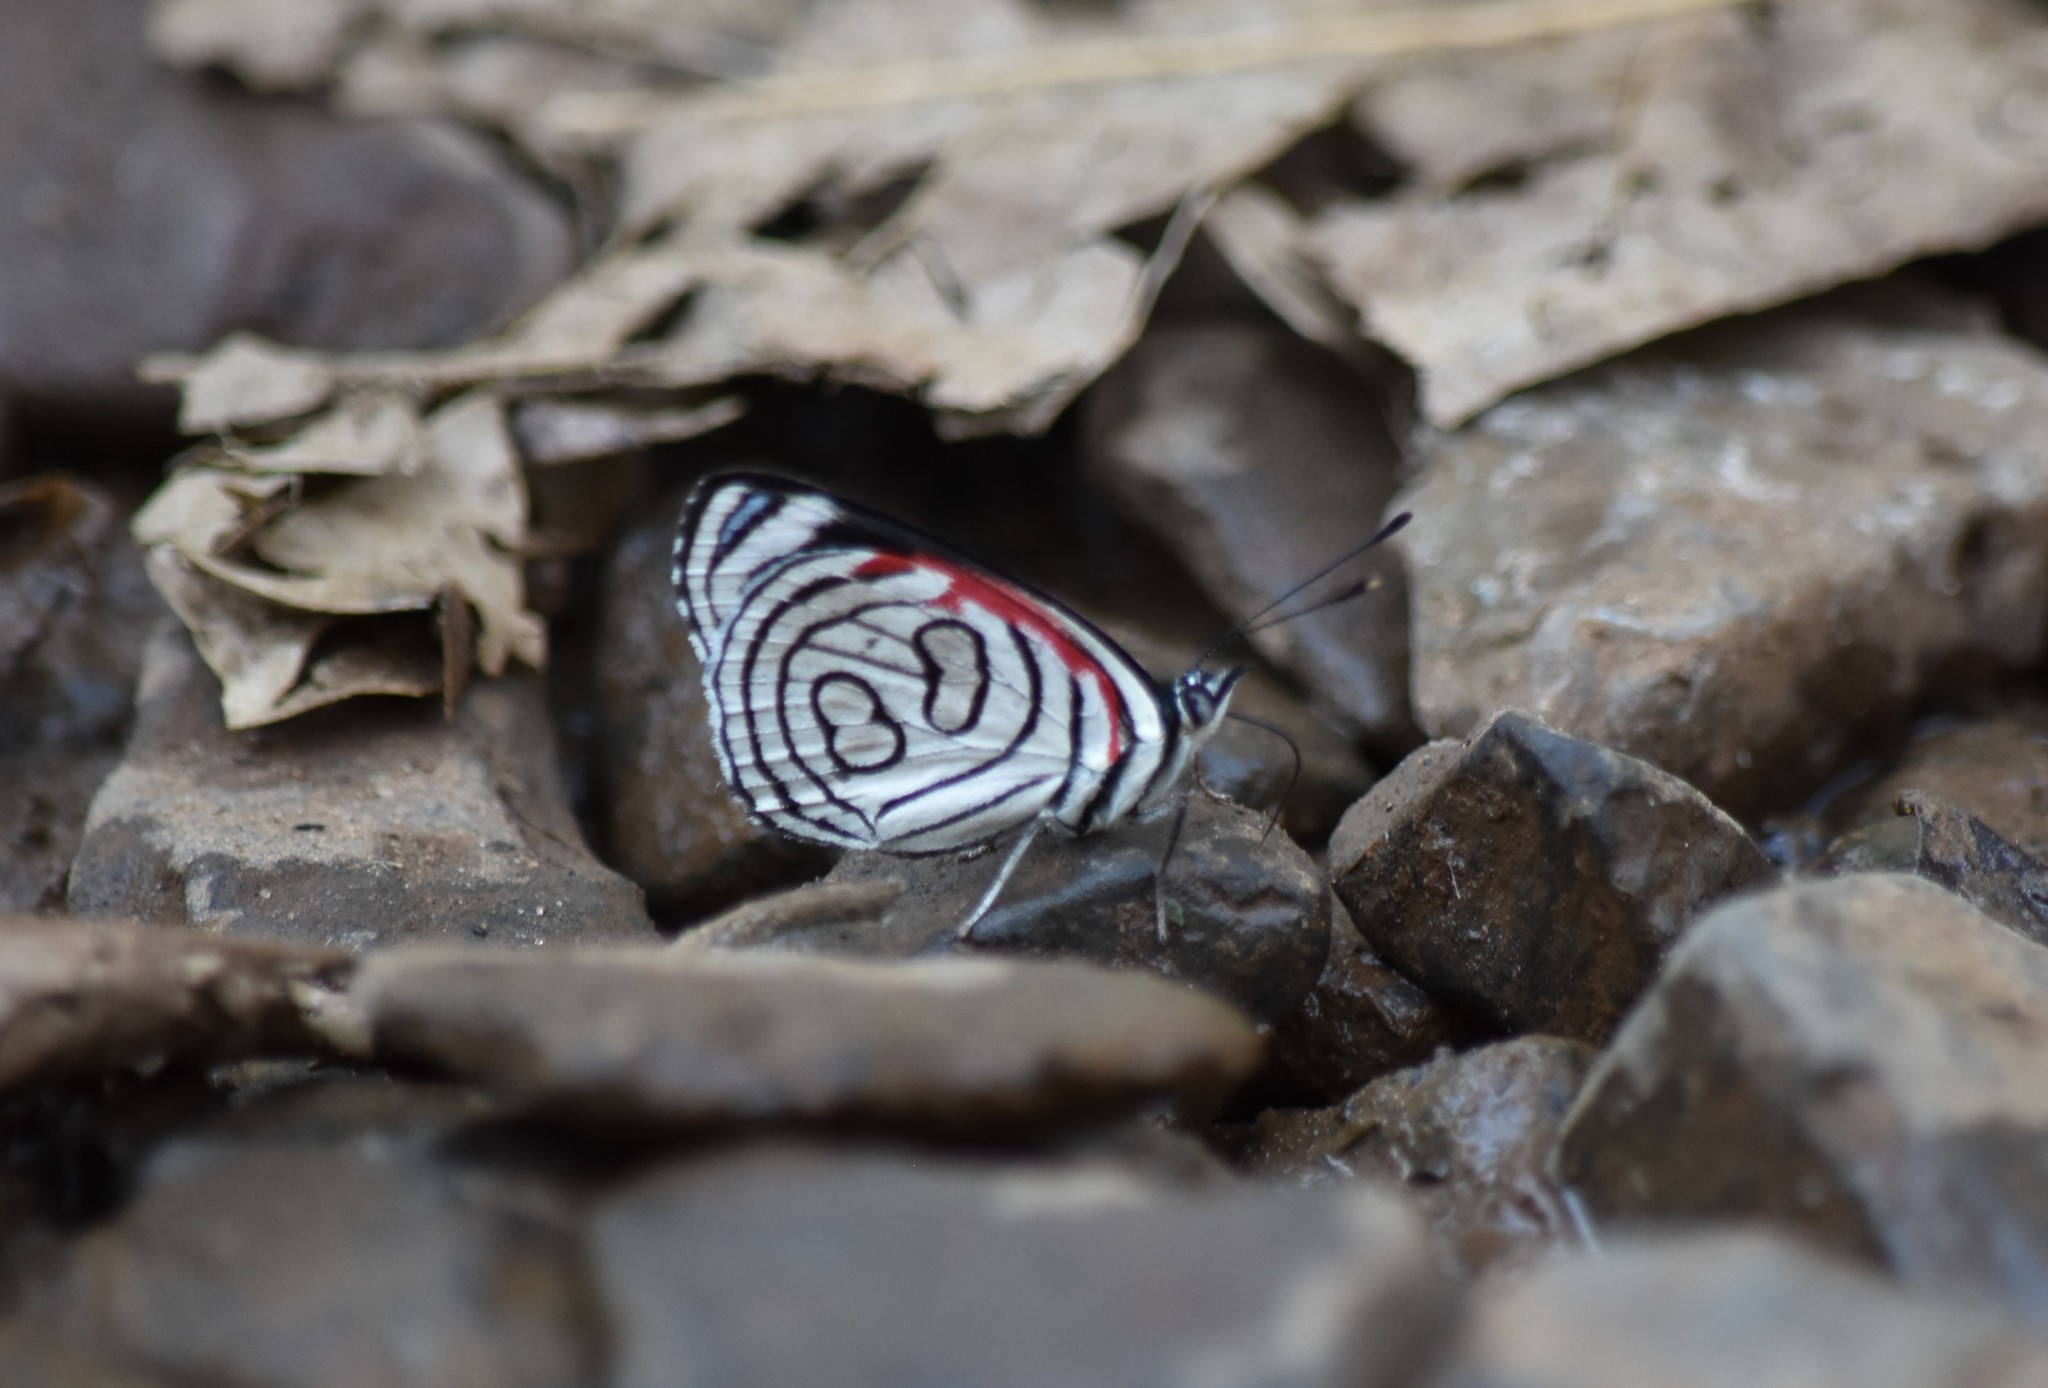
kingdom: Animalia
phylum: Arthropoda
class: Insecta
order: Lepidoptera
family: Nymphalidae
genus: Diaethria
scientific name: Diaethria candrena
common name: Number eighty
